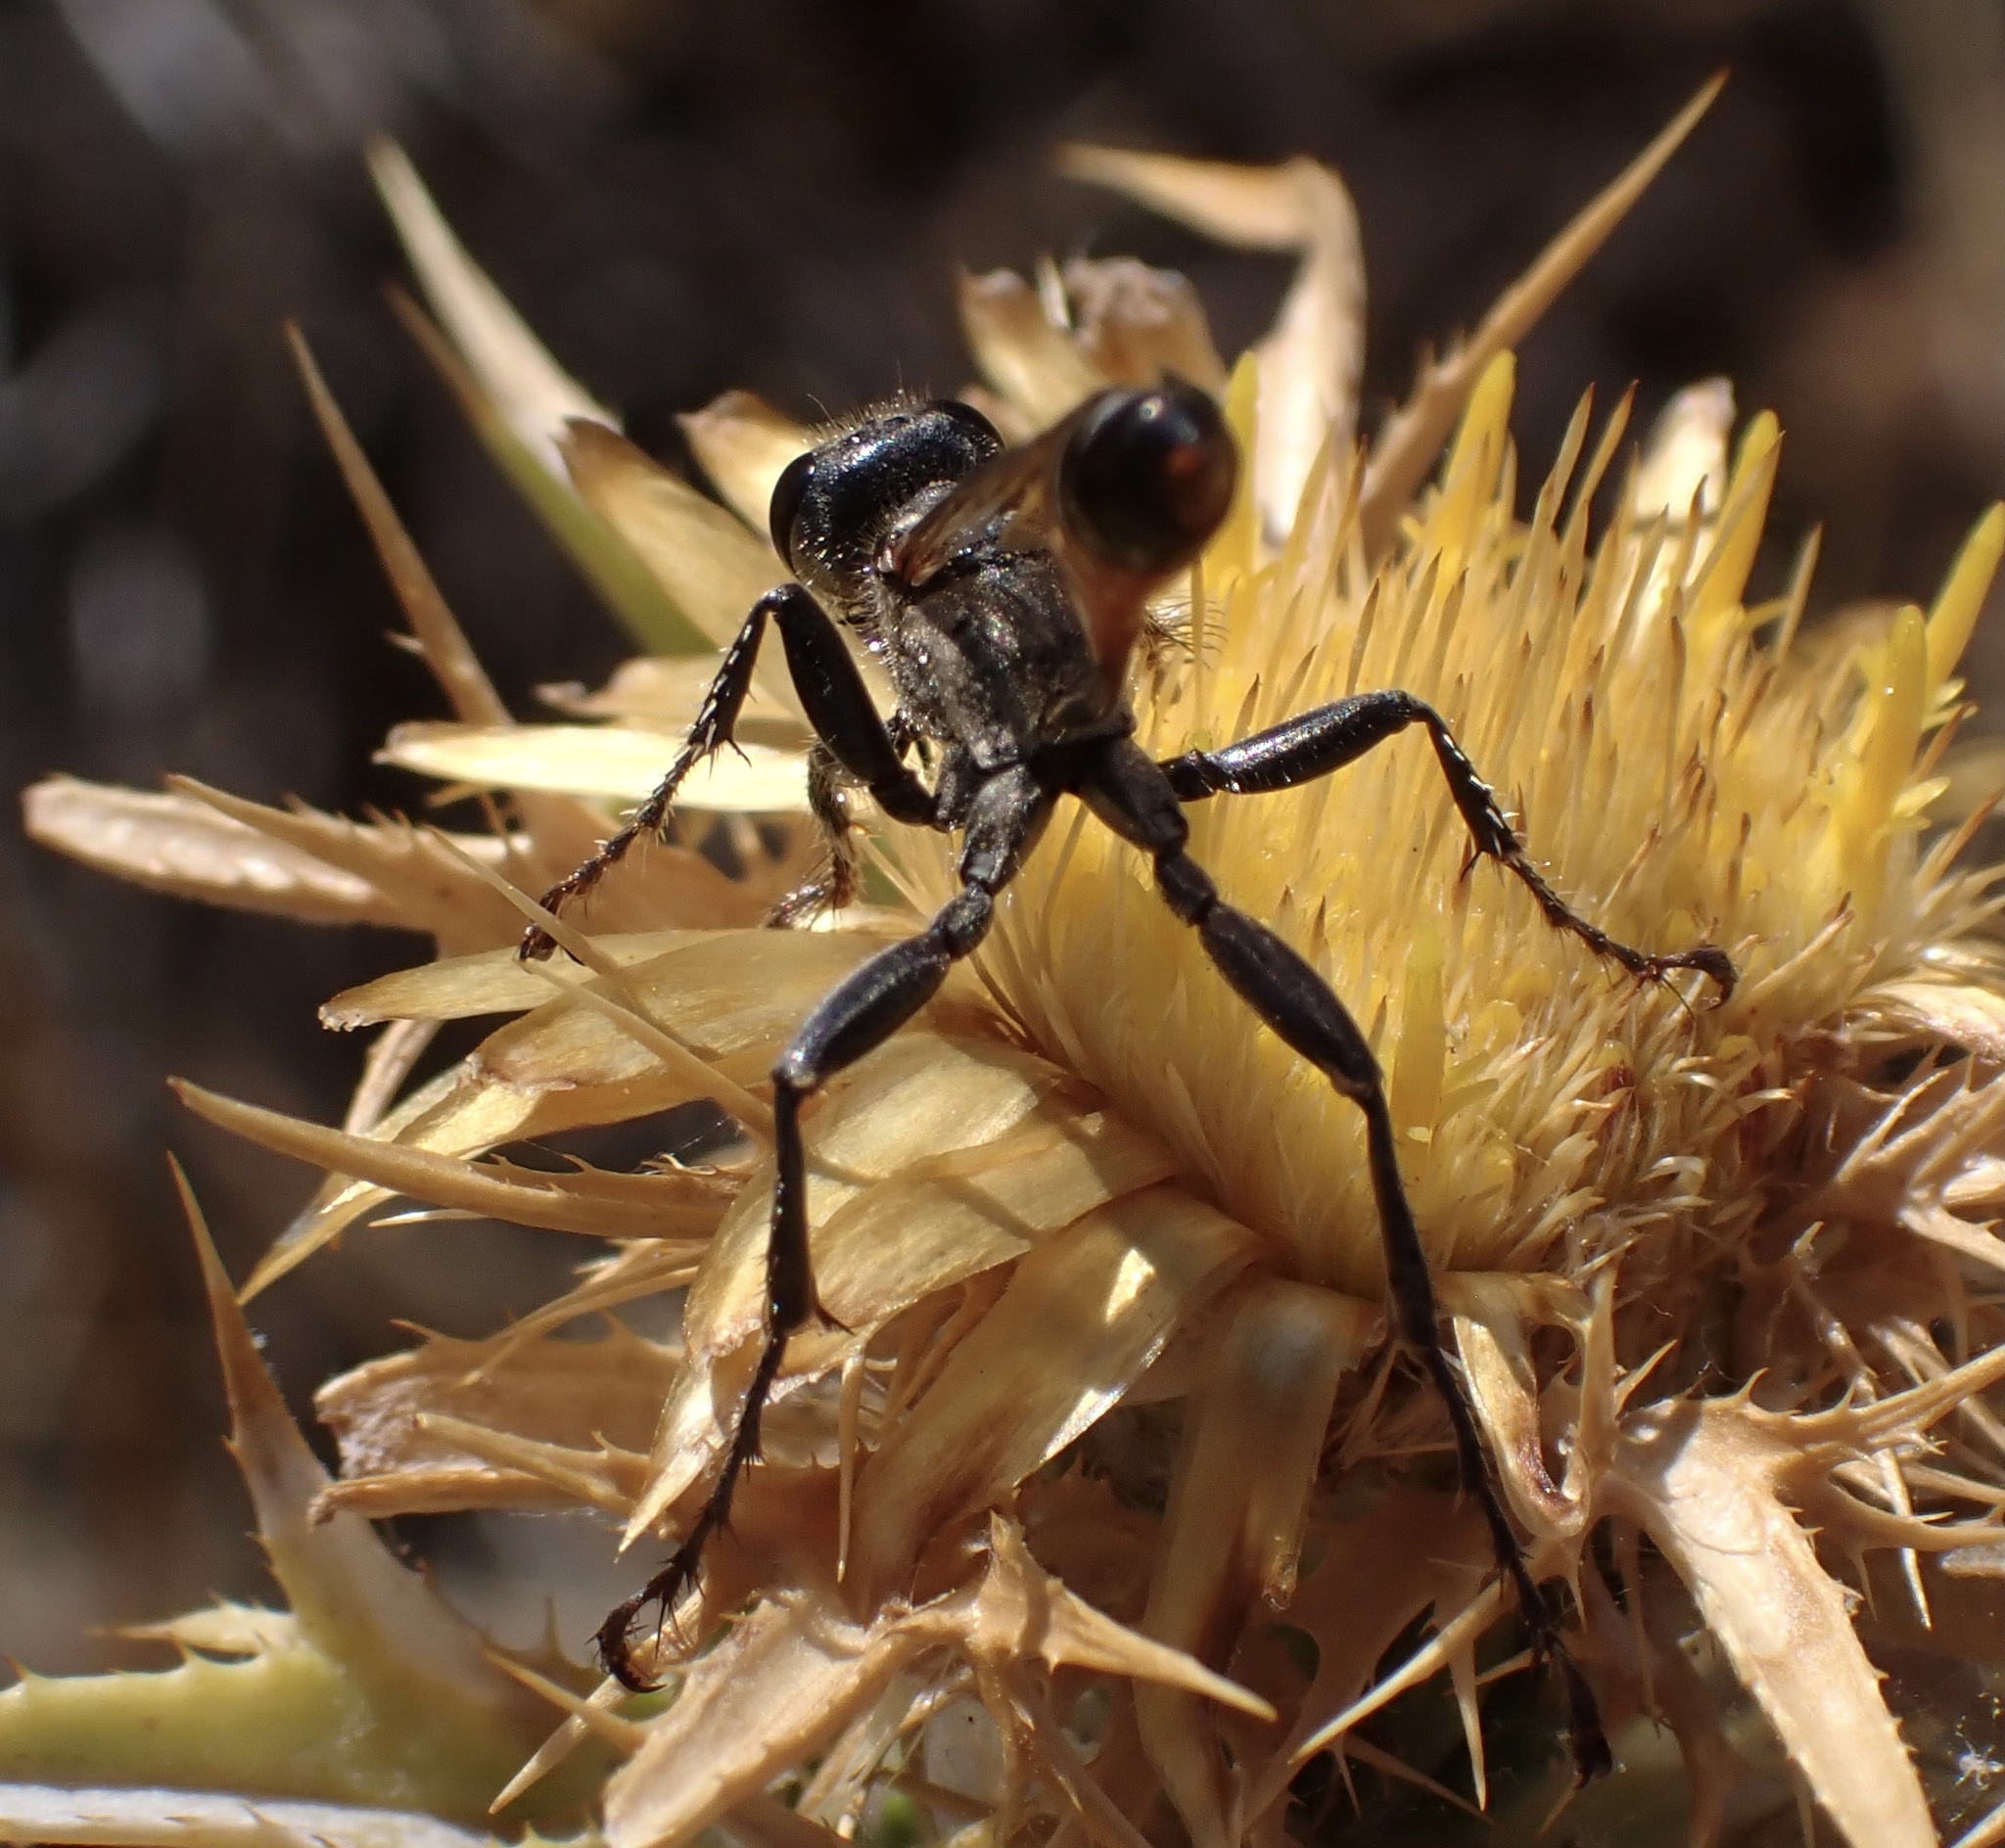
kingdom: Animalia
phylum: Arthropoda
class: Insecta
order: Hymenoptera
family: Sphecidae
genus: Prionyx
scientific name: Prionyx kirbii
